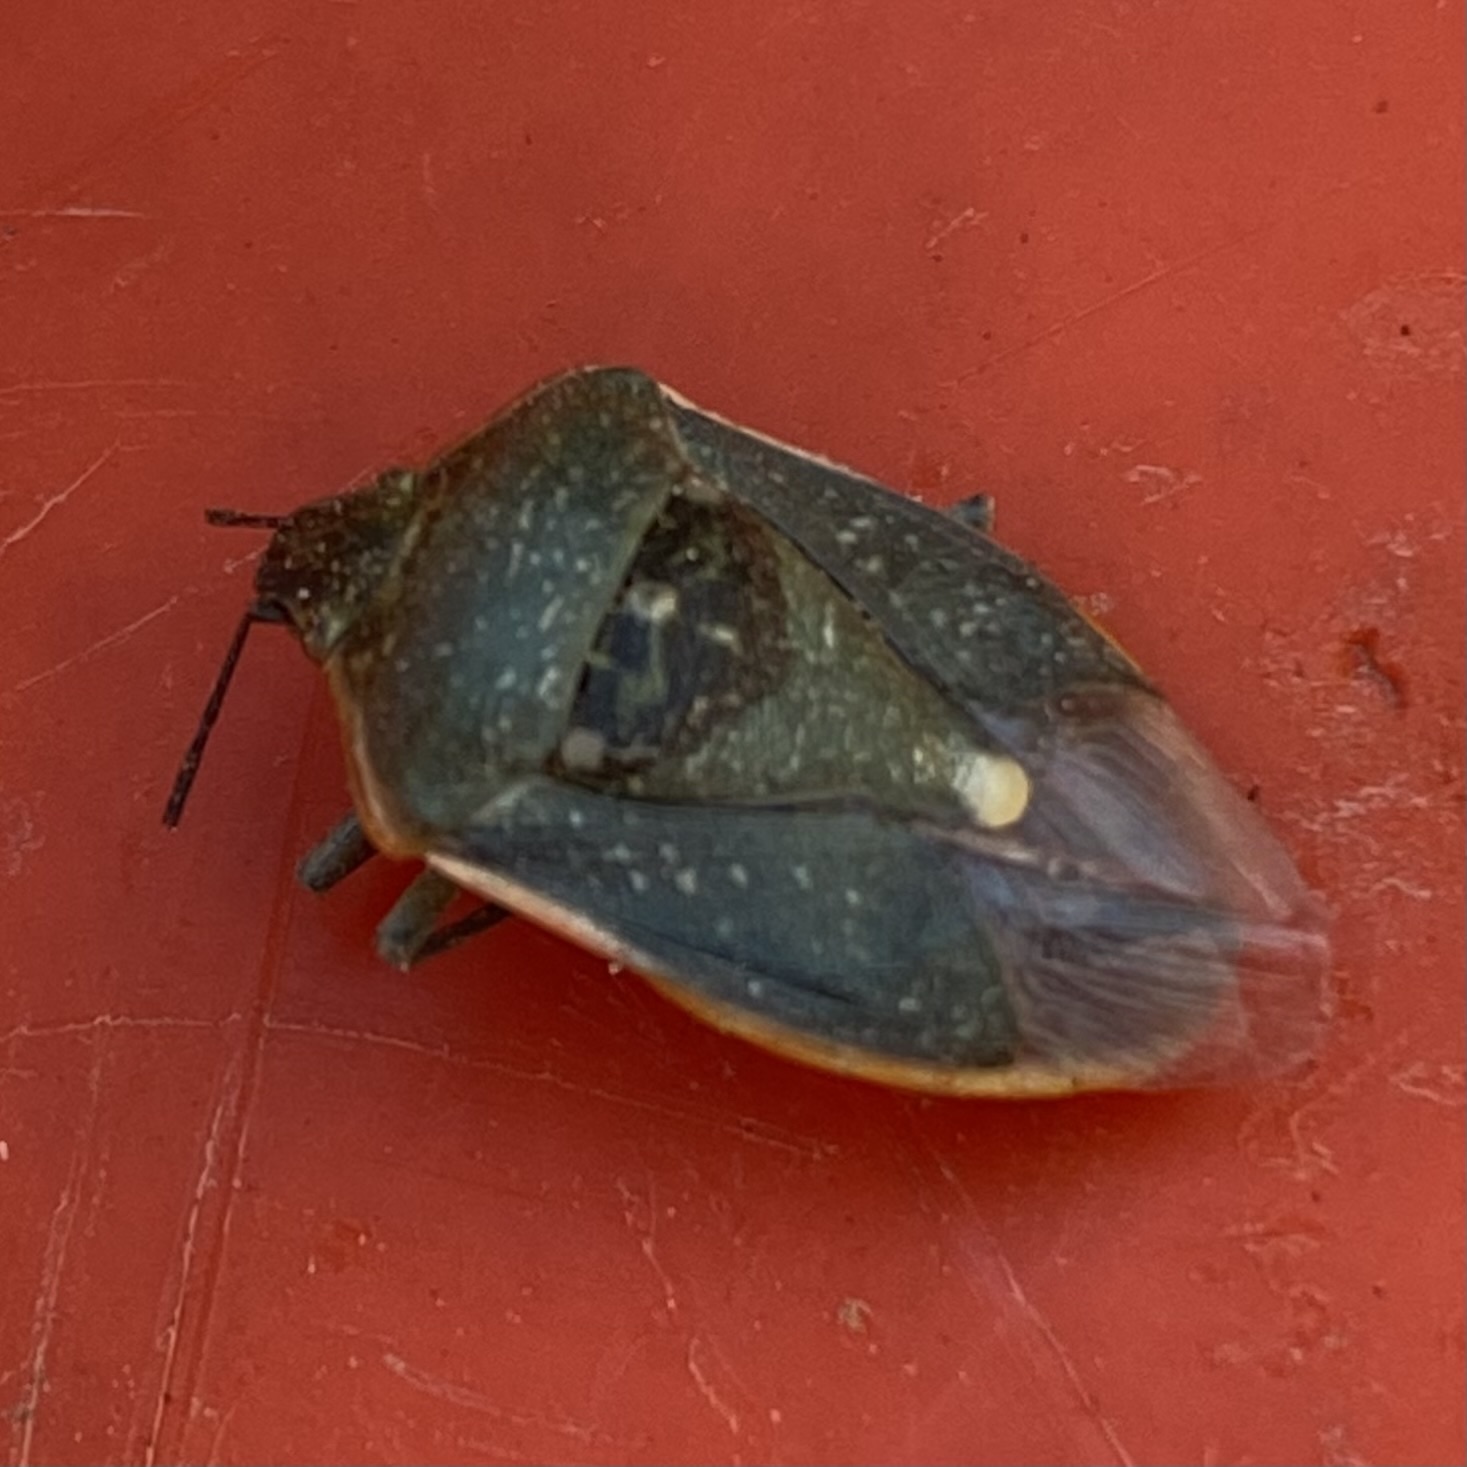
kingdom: Animalia
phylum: Arthropoda
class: Insecta
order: Hemiptera
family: Pentatomidae
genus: Chlorochroa
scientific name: Chlorochroa sayi
